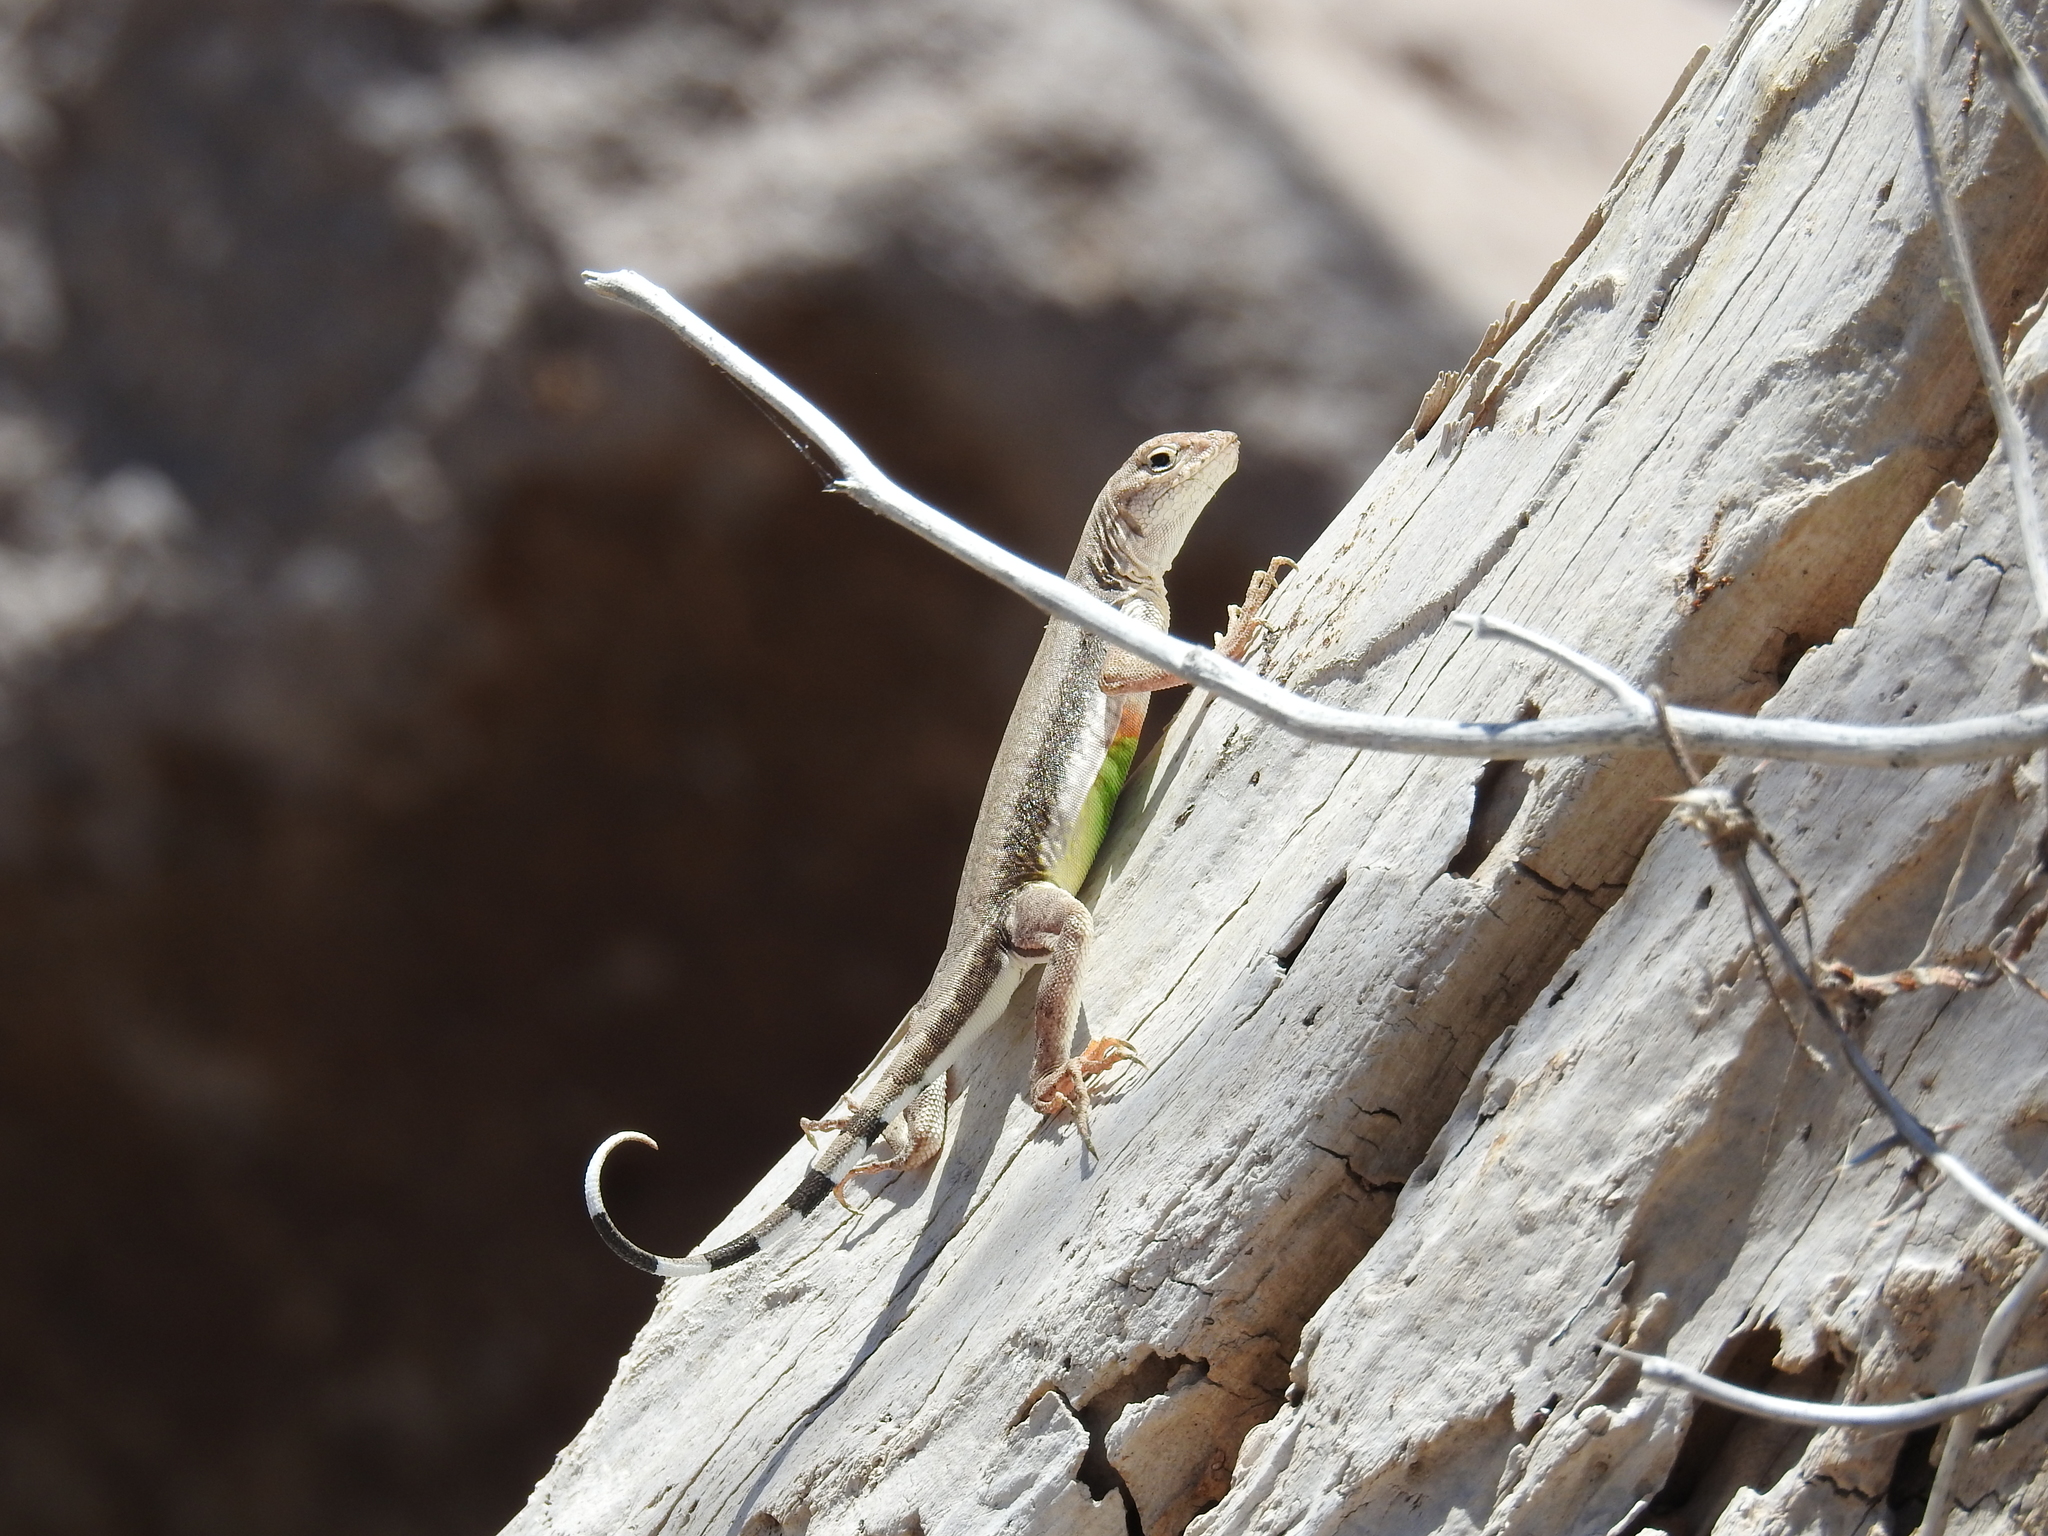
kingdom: Animalia
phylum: Chordata
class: Squamata
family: Phrynosomatidae
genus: Callisaurus
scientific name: Callisaurus draconoides
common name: Zebra-tailed lizard
